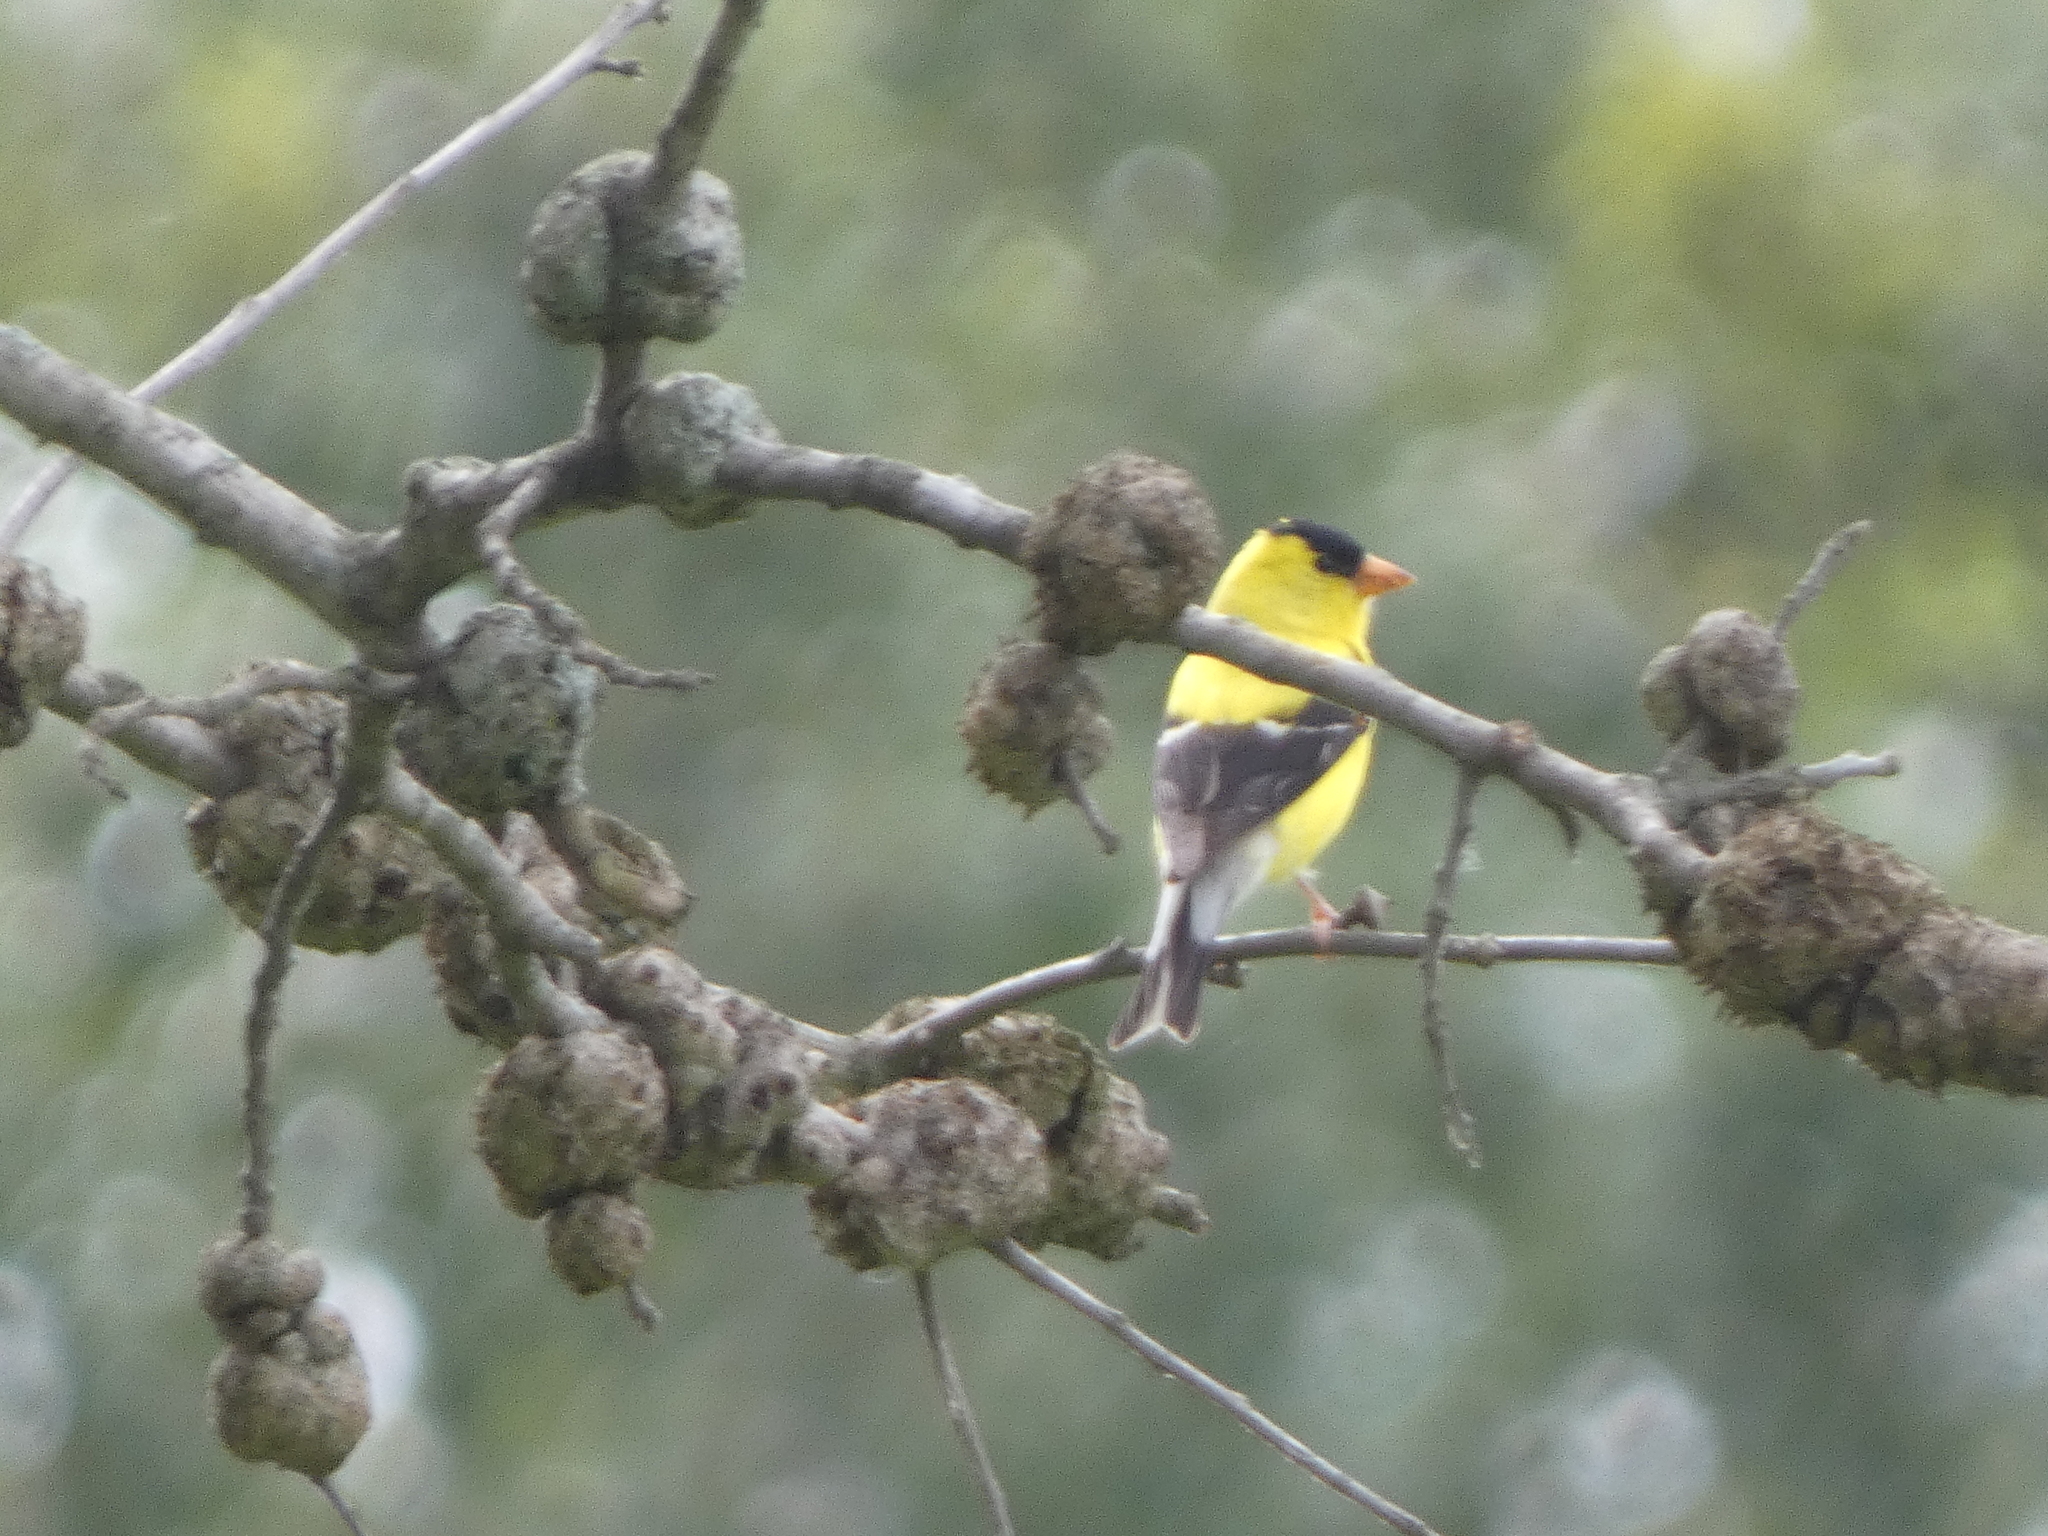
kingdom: Animalia
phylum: Chordata
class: Aves
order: Passeriformes
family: Fringillidae
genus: Spinus
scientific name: Spinus tristis
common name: American goldfinch
